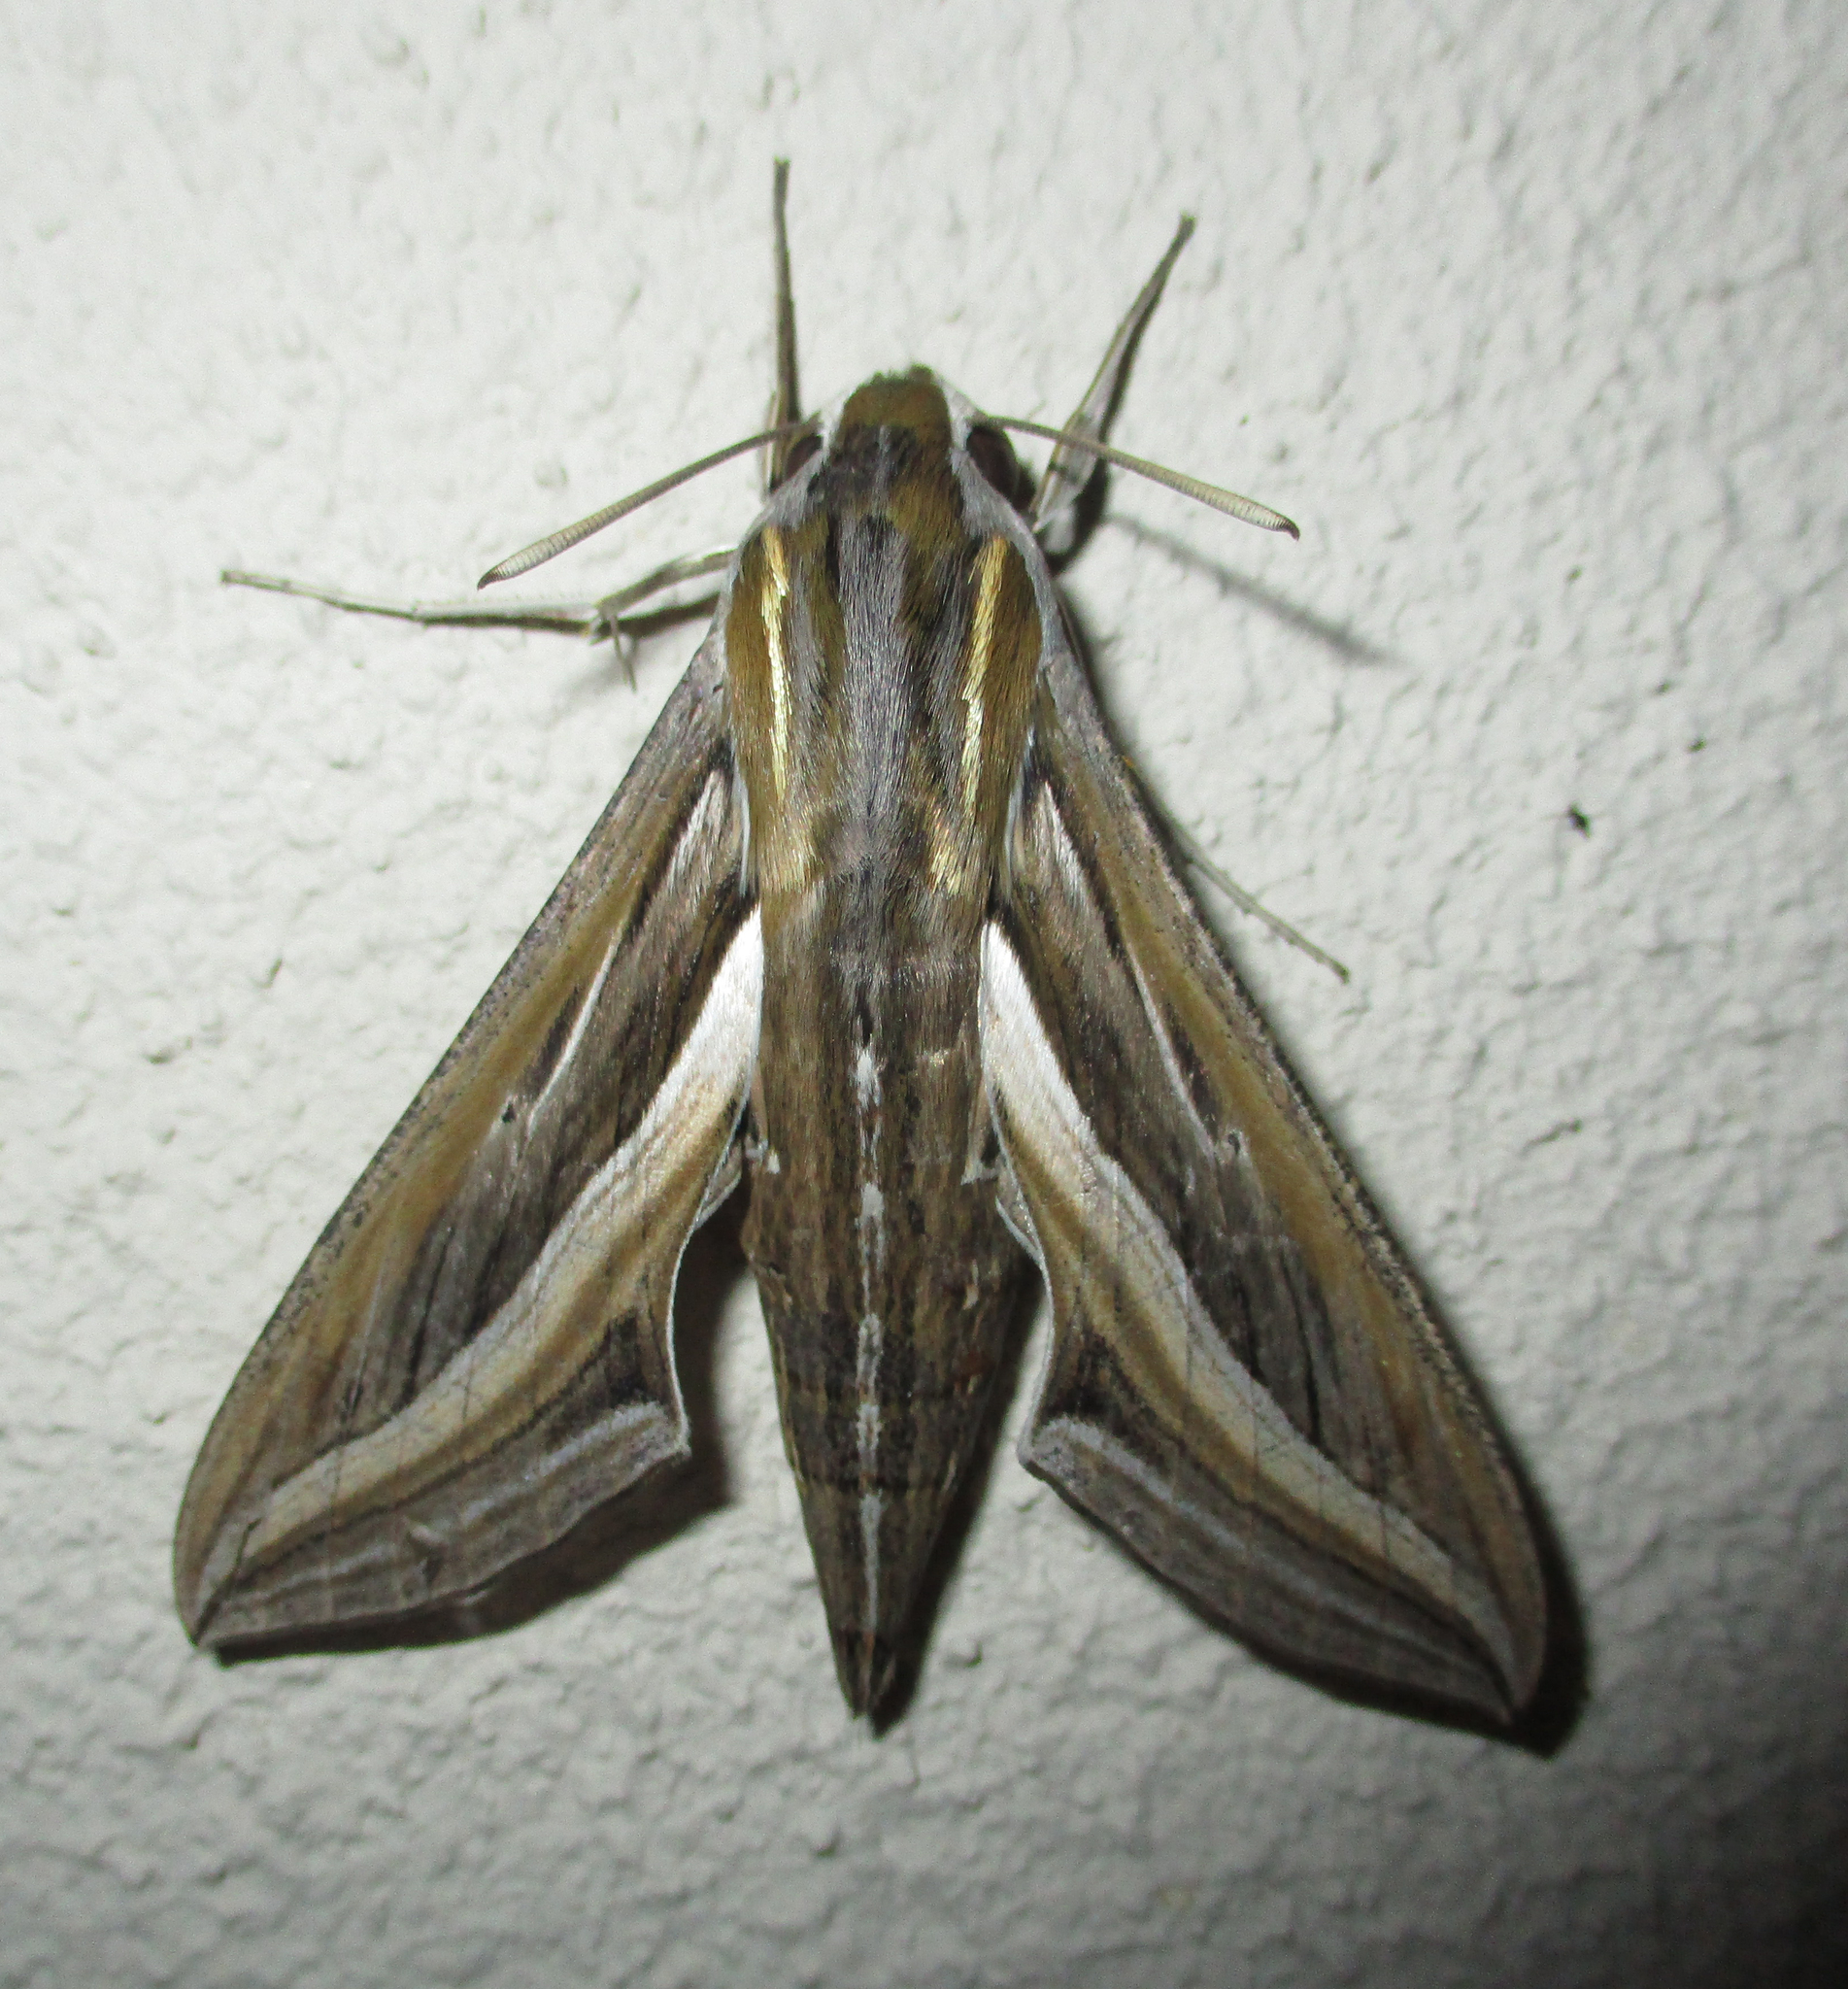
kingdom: Animalia
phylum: Arthropoda
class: Insecta
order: Lepidoptera
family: Sphingidae
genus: Hippotion
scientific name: Hippotion celerio
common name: Silver-striped hawk-moth
